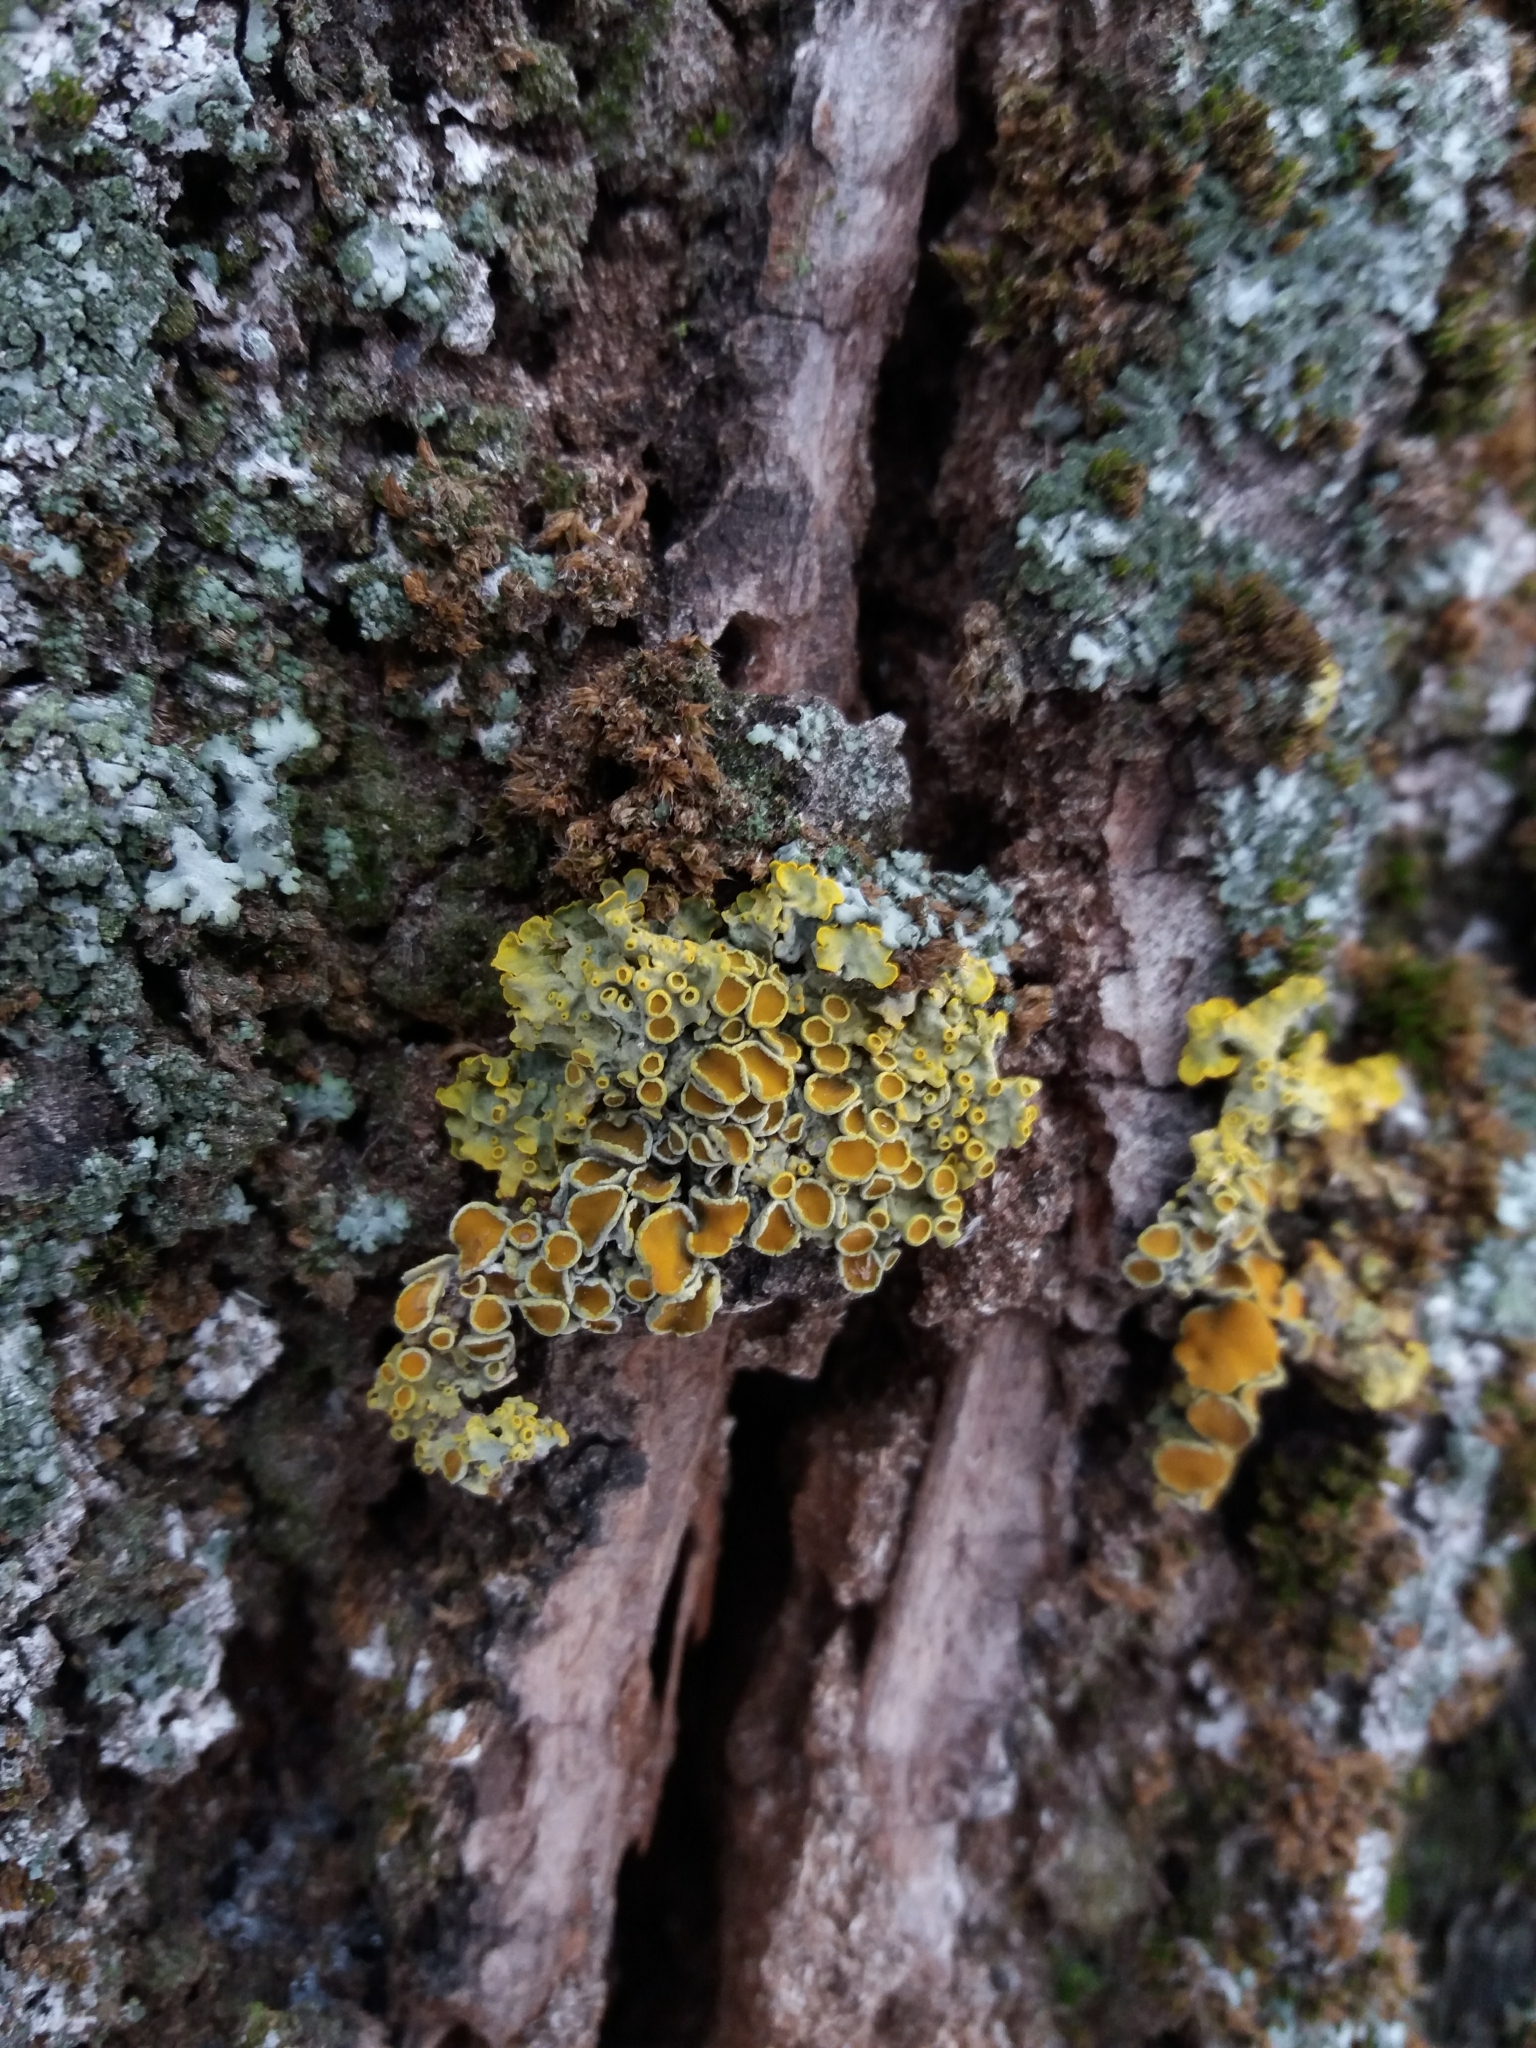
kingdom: Fungi
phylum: Ascomycota
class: Lecanoromycetes
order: Teloschistales
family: Teloschistaceae
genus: Xanthoria
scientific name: Xanthoria parietina
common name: Common orange lichen
